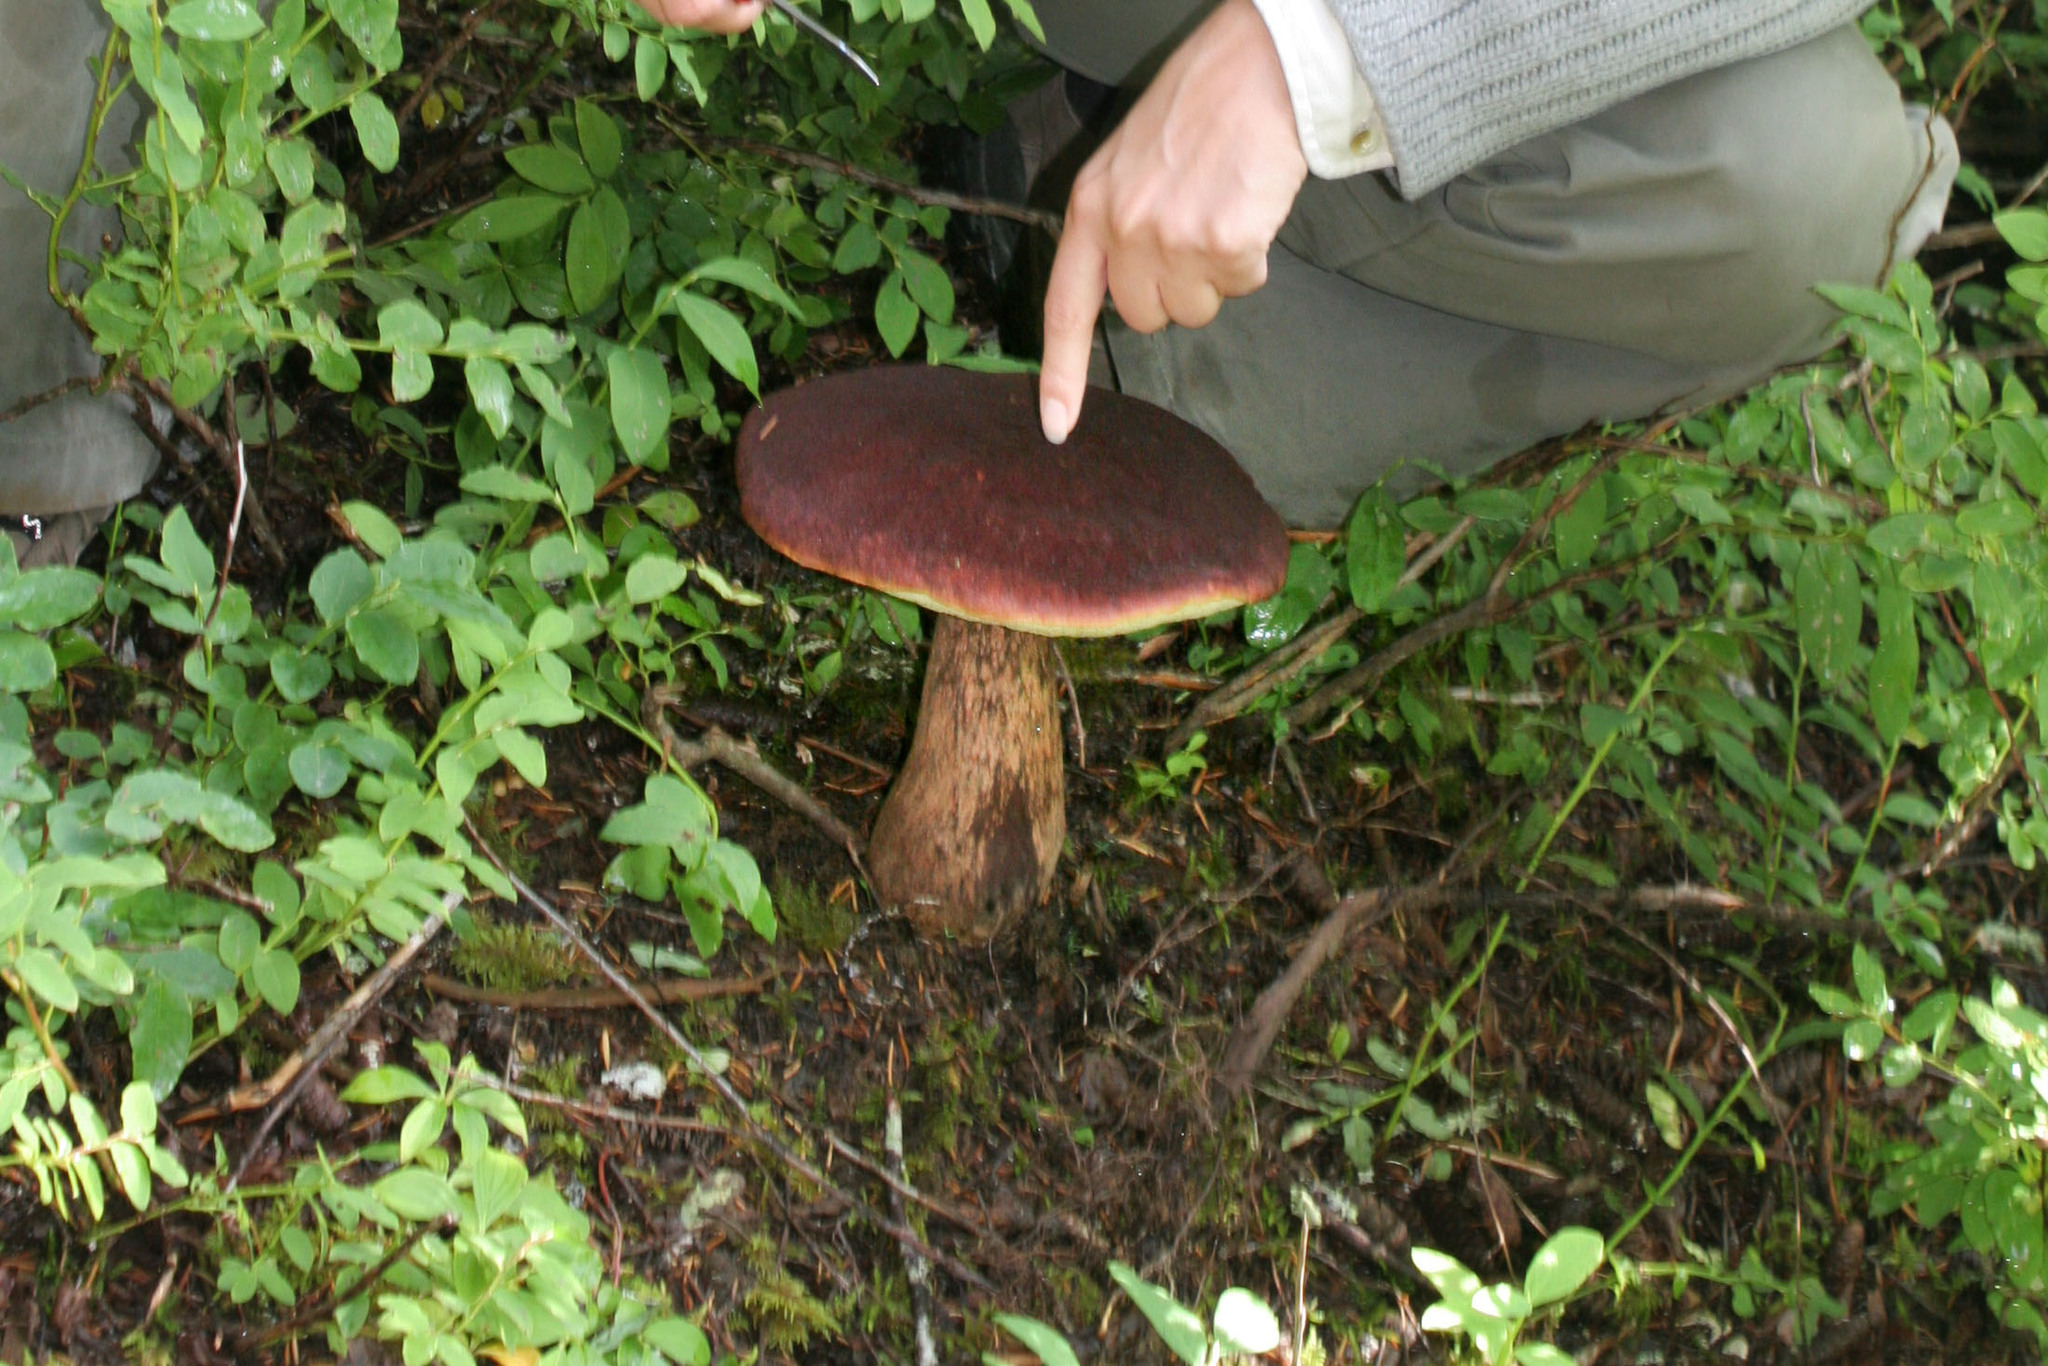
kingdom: Fungi
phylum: Basidiomycota
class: Agaricomycetes
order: Boletales
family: Boletaceae
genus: Aureoboletus
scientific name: Aureoboletus mirabilis
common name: Admirable bolete
